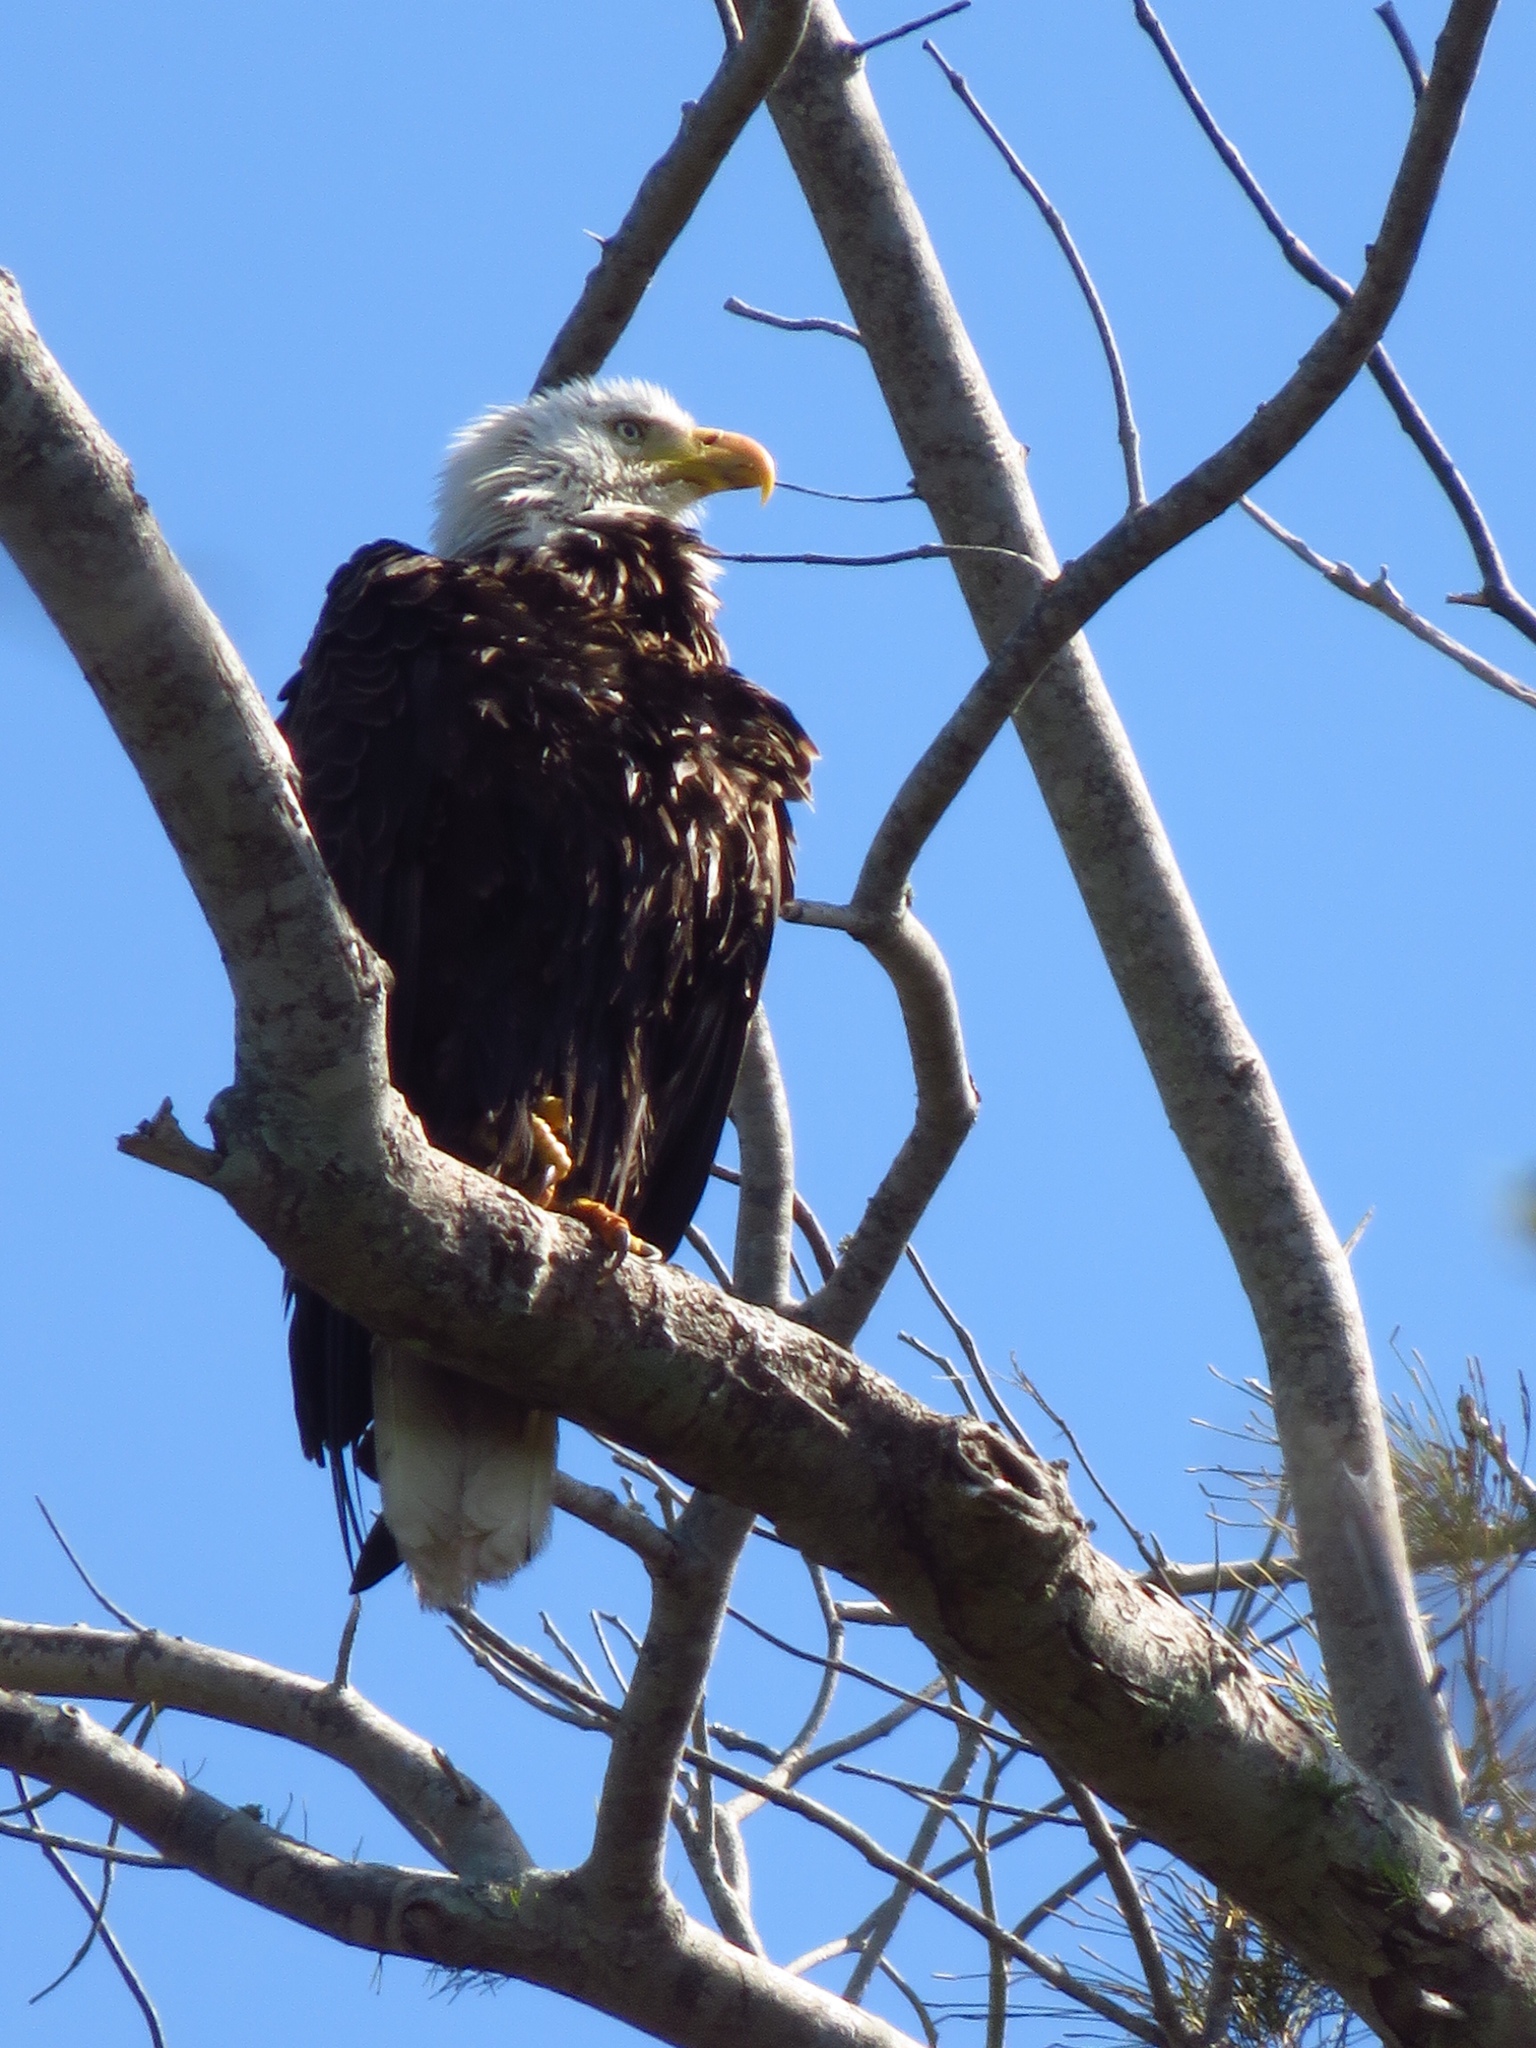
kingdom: Animalia
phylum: Chordata
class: Aves
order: Accipitriformes
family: Accipitridae
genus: Haliaeetus
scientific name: Haliaeetus leucocephalus
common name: Bald eagle
